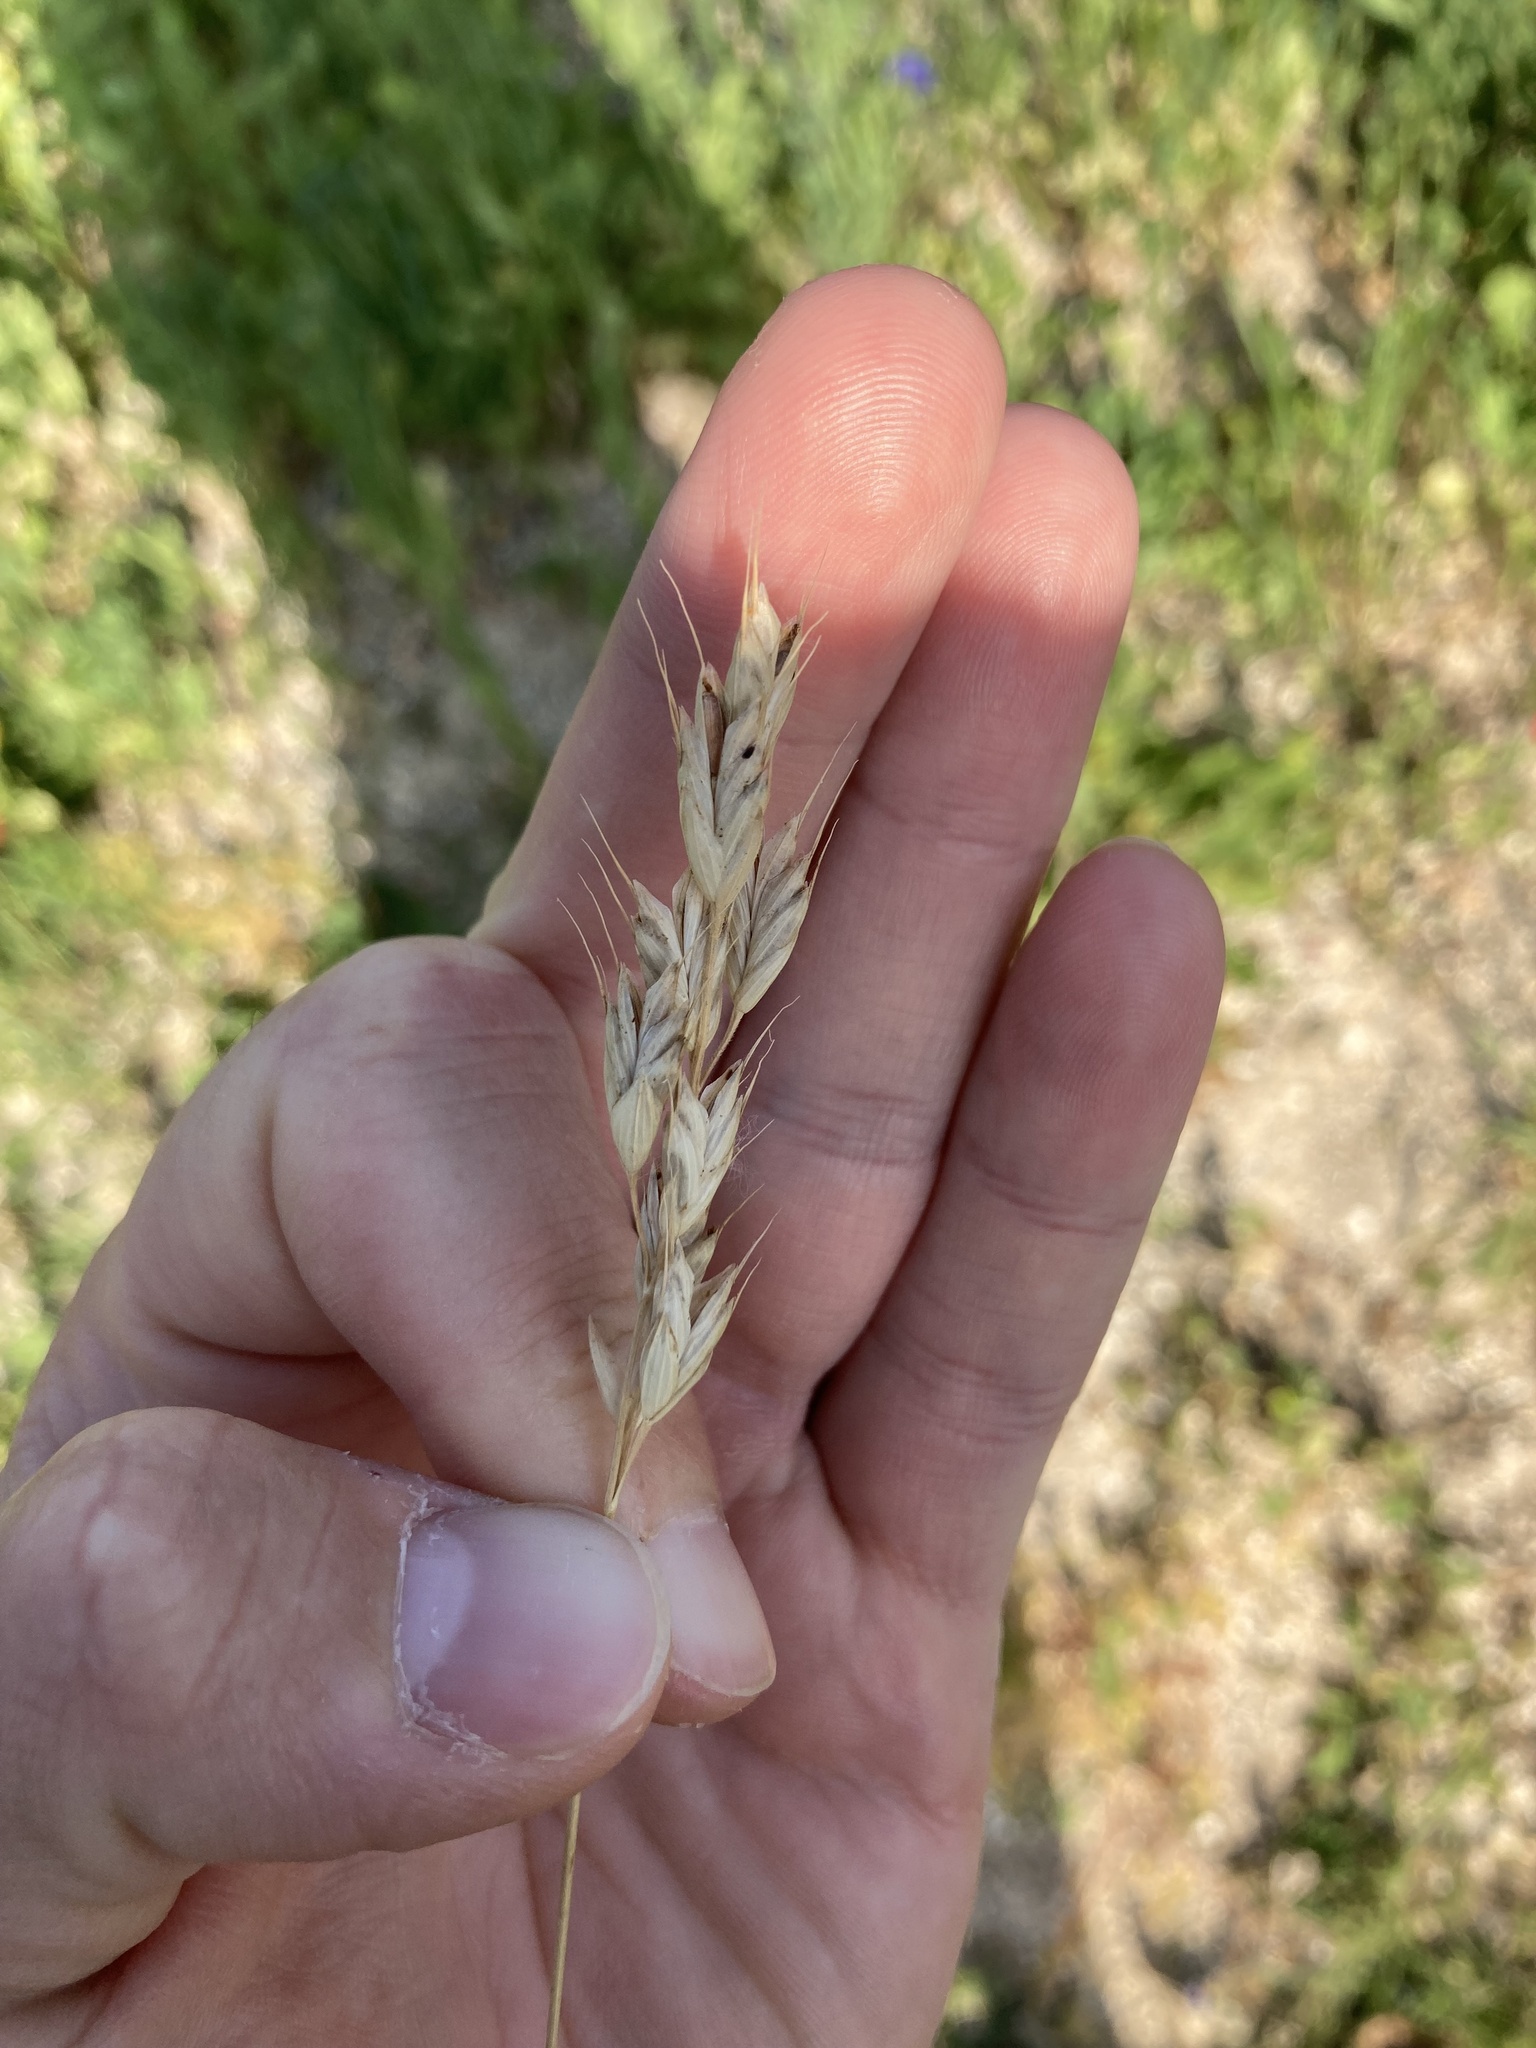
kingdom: Plantae
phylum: Tracheophyta
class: Liliopsida
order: Poales
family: Poaceae
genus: Bromus
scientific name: Bromus hordeaceus
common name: Soft brome
